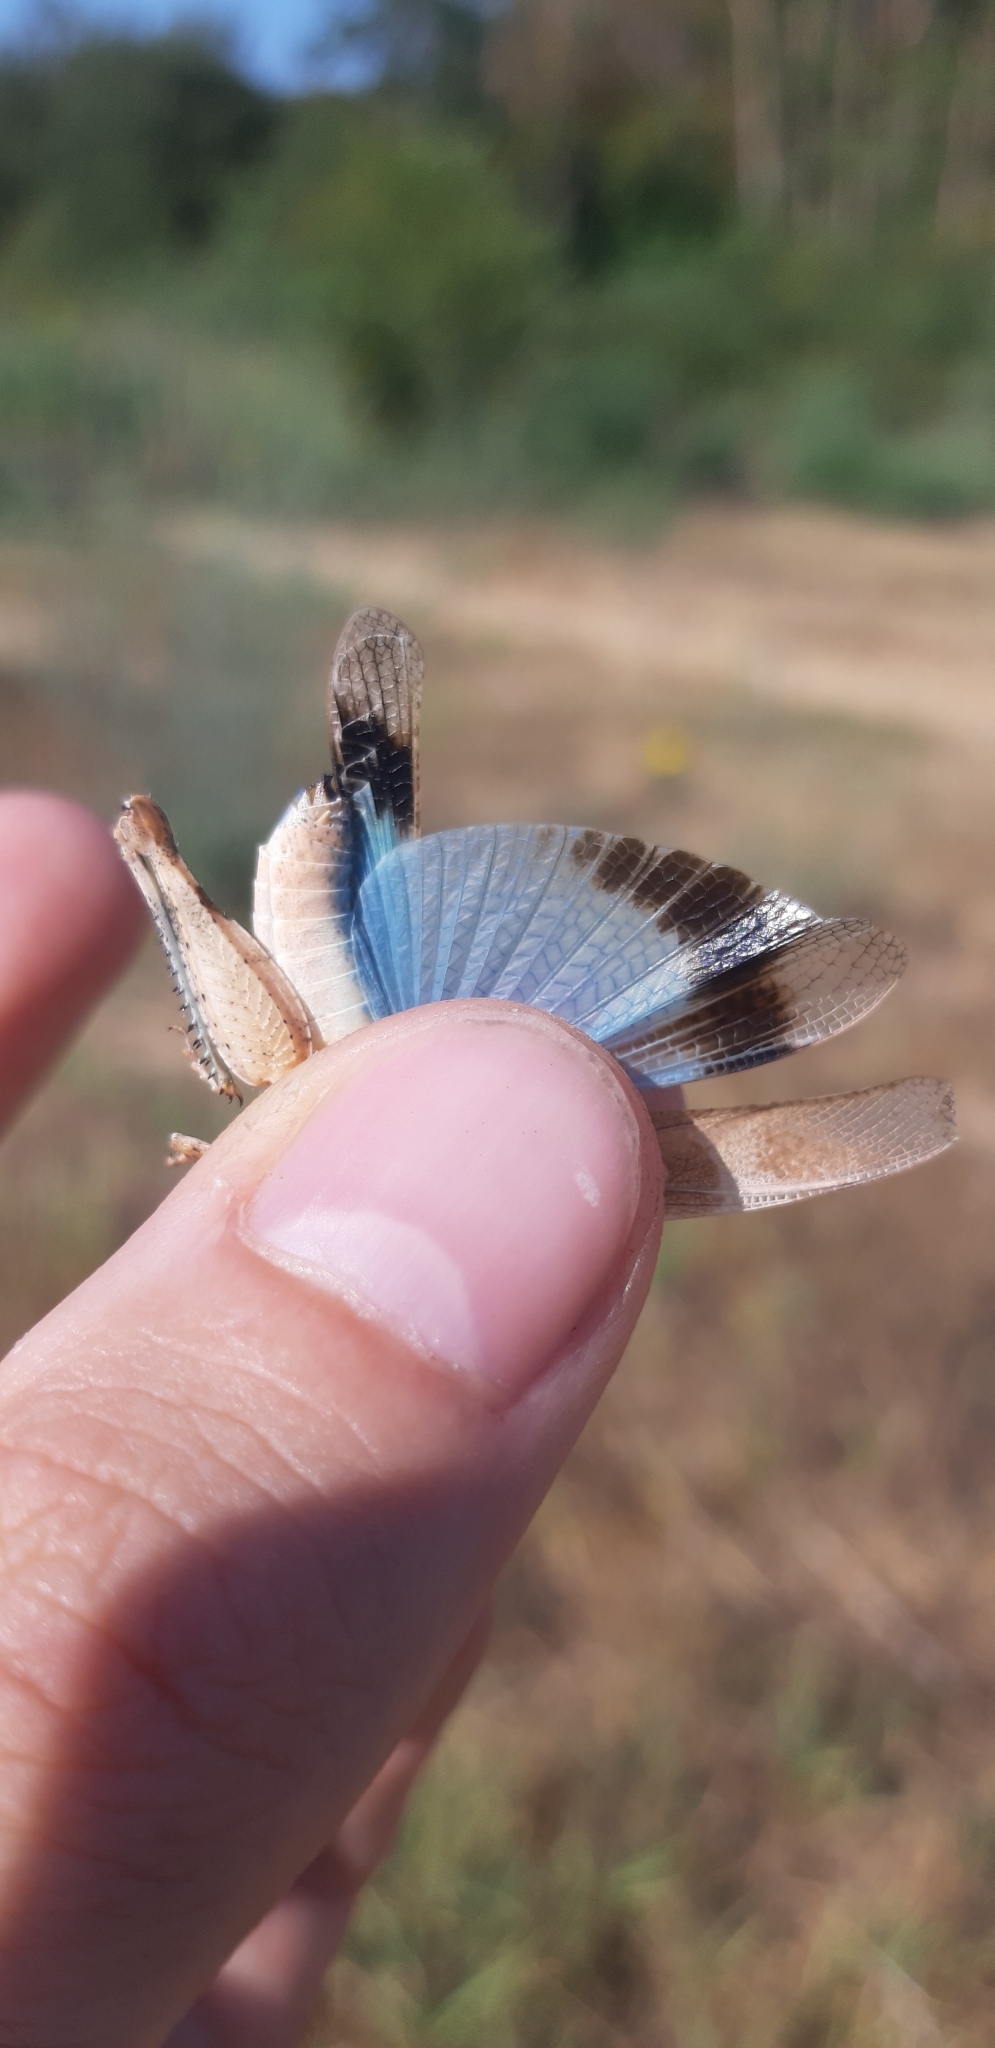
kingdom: Animalia
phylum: Arthropoda
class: Insecta
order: Orthoptera
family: Acrididae
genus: Oedipoda
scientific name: Oedipoda caerulescens
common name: Blue-winged grasshopper
